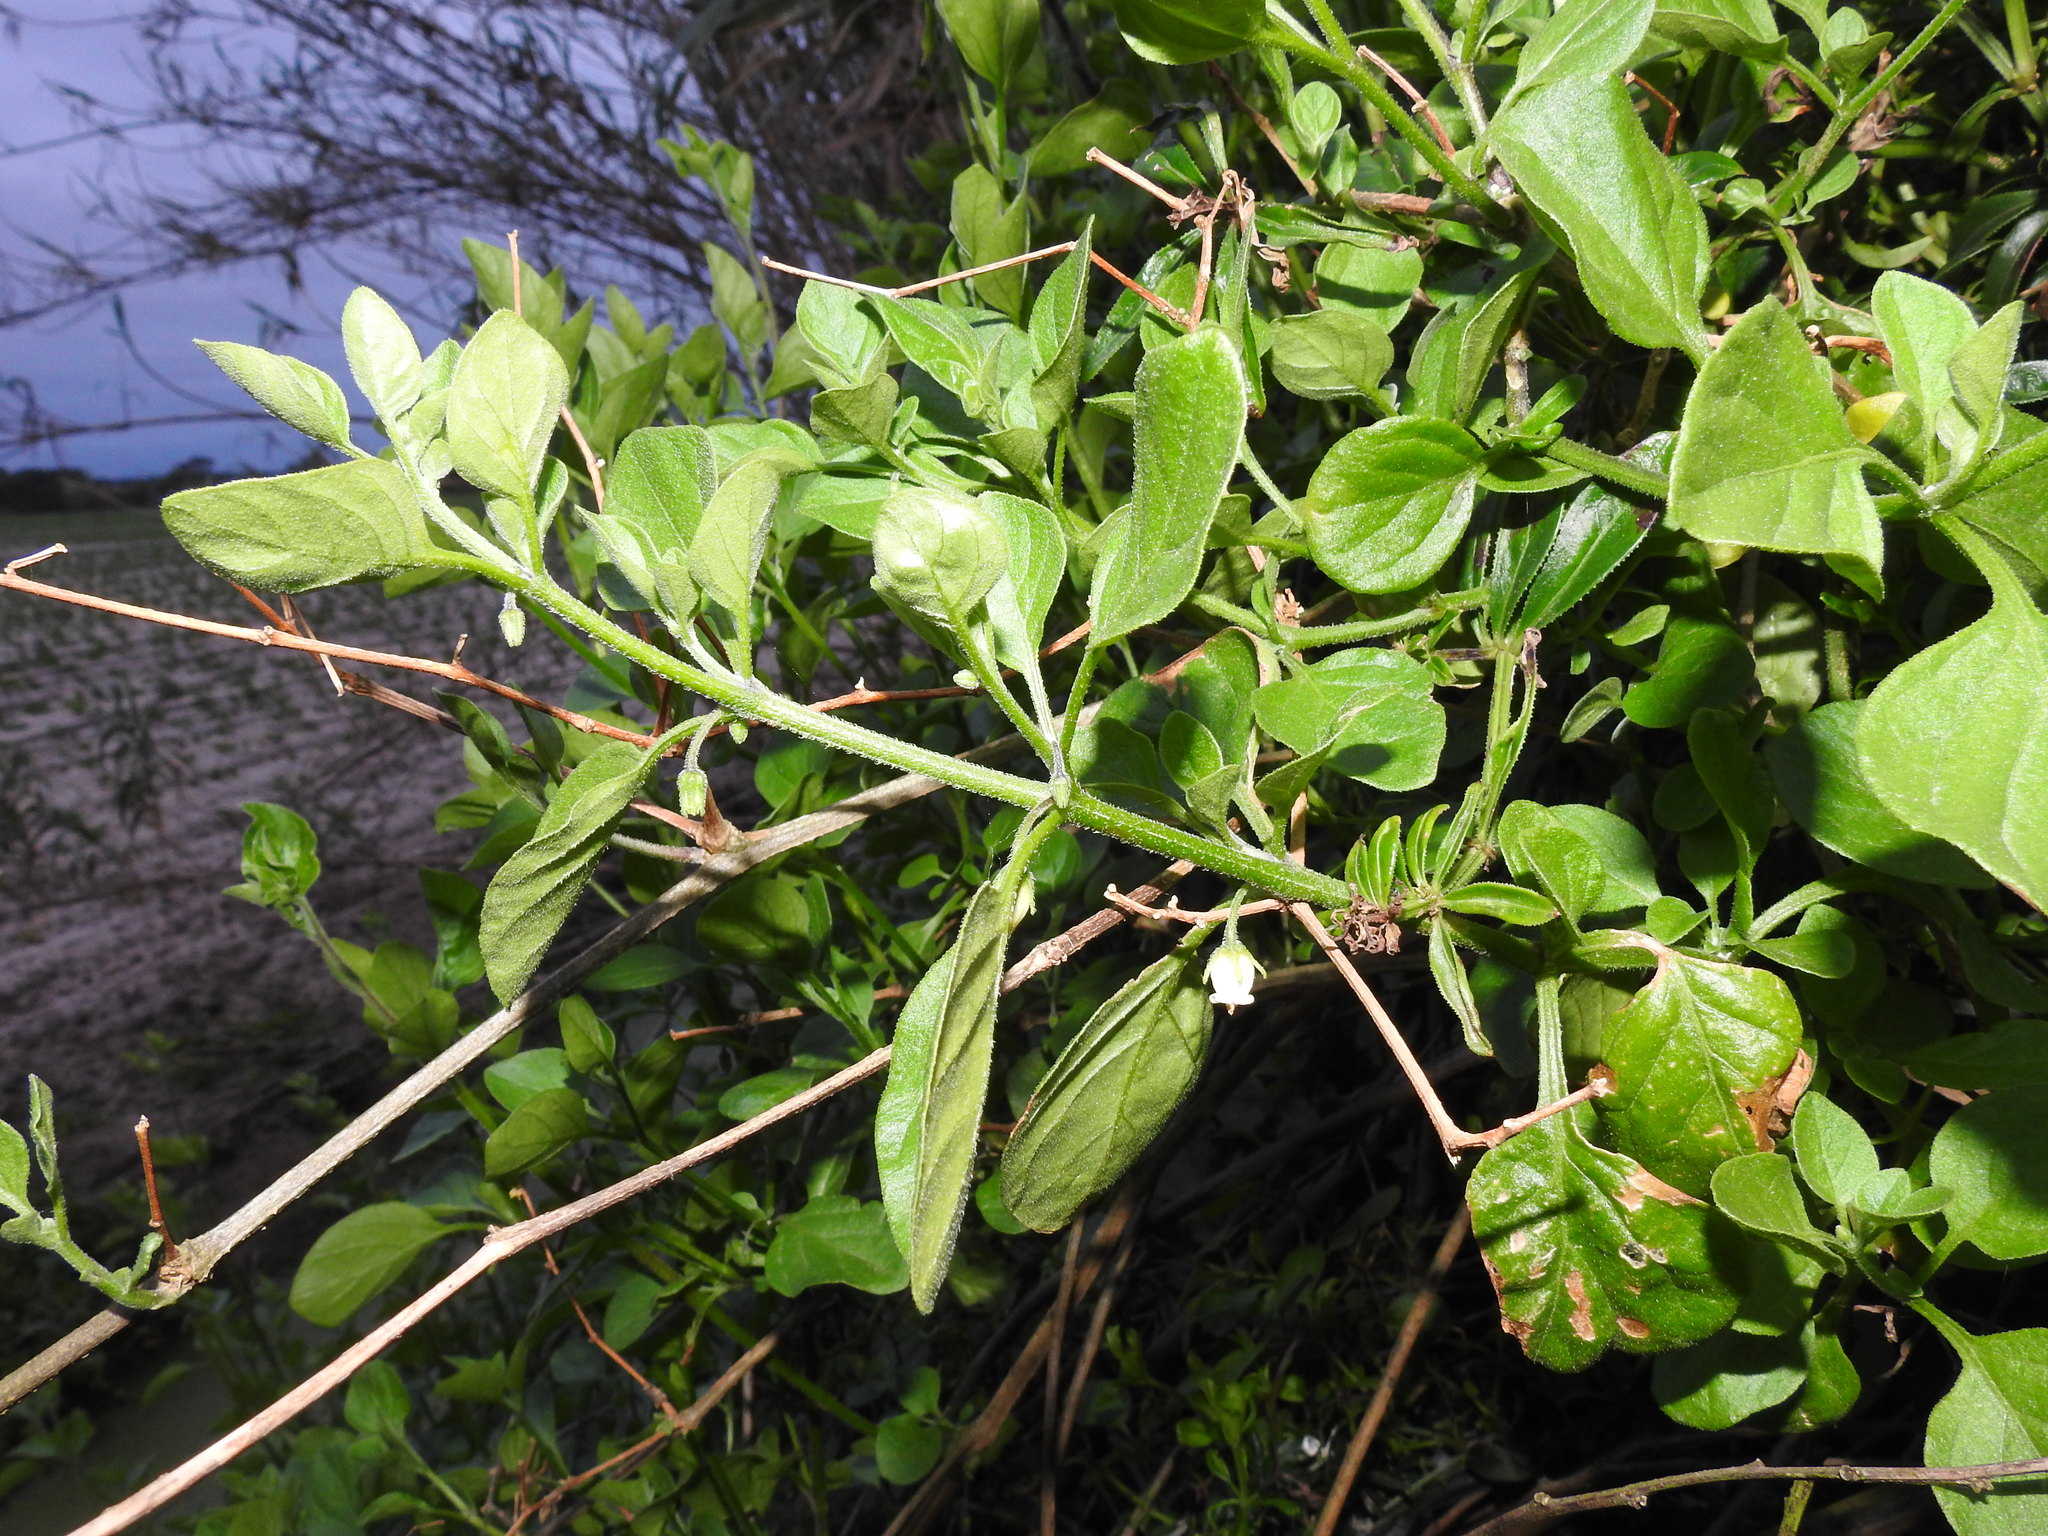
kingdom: Plantae
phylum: Tracheophyta
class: Magnoliopsida
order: Solanales
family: Solanaceae
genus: Salpichroa
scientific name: Salpichroa origanifolia
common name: Lily-of-the-valley-vine
